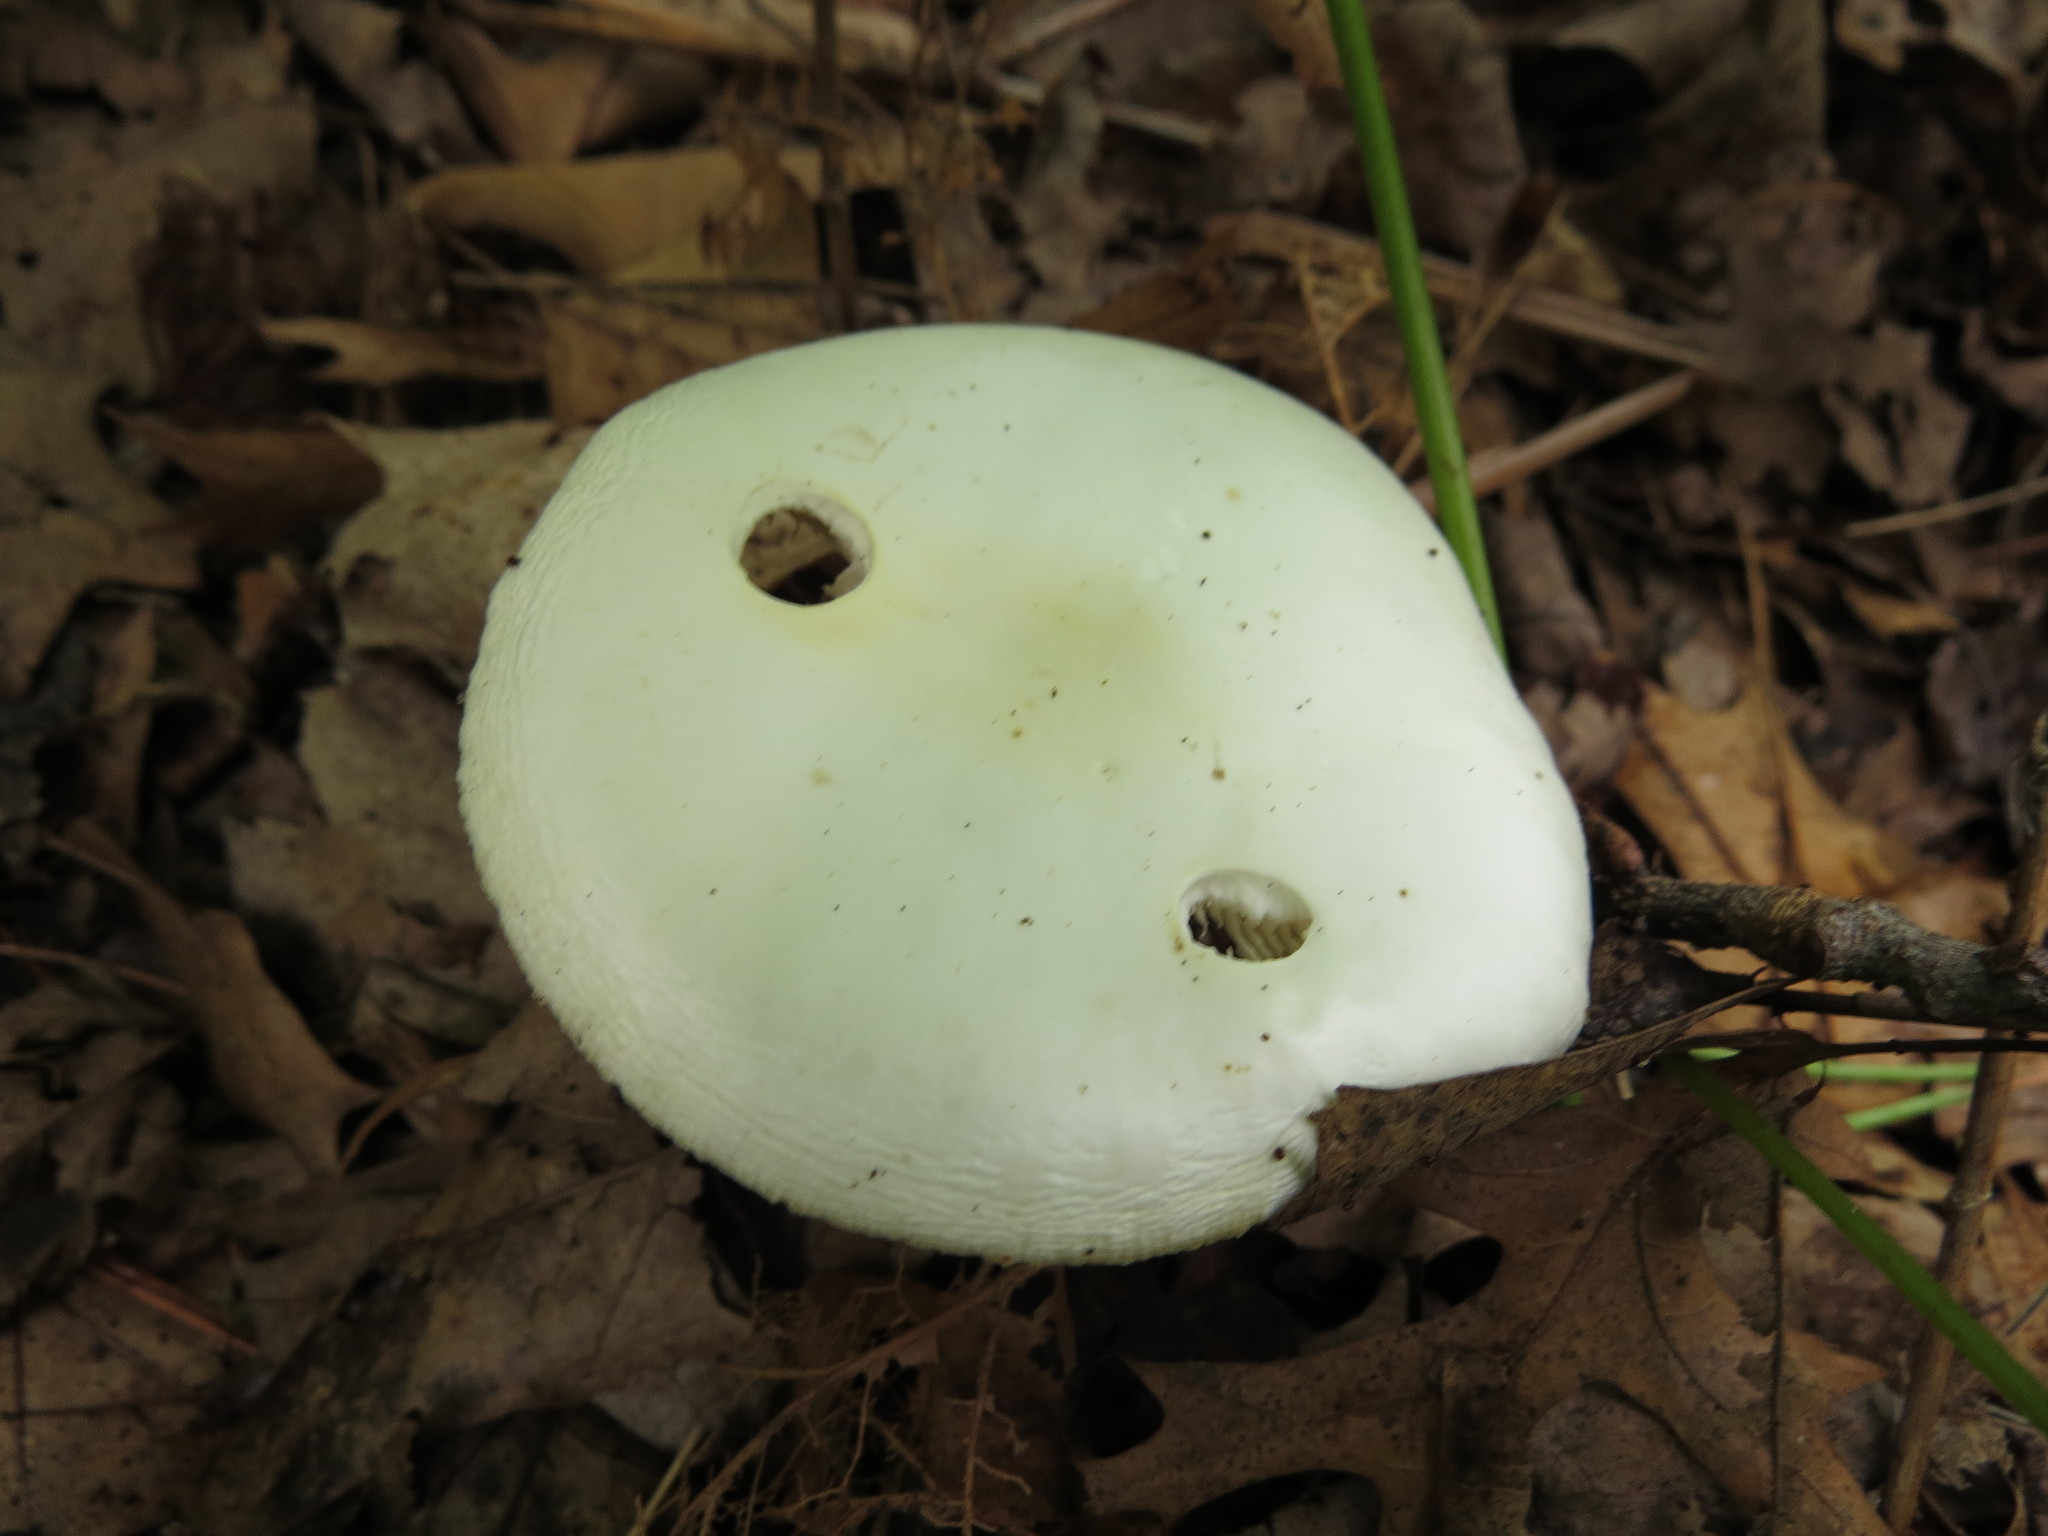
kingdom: Fungi
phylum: Basidiomycota
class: Agaricomycetes
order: Agaricales
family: Amanitaceae
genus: Amanita
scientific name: Amanita bisporigera
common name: Eastern north american destroying angel
